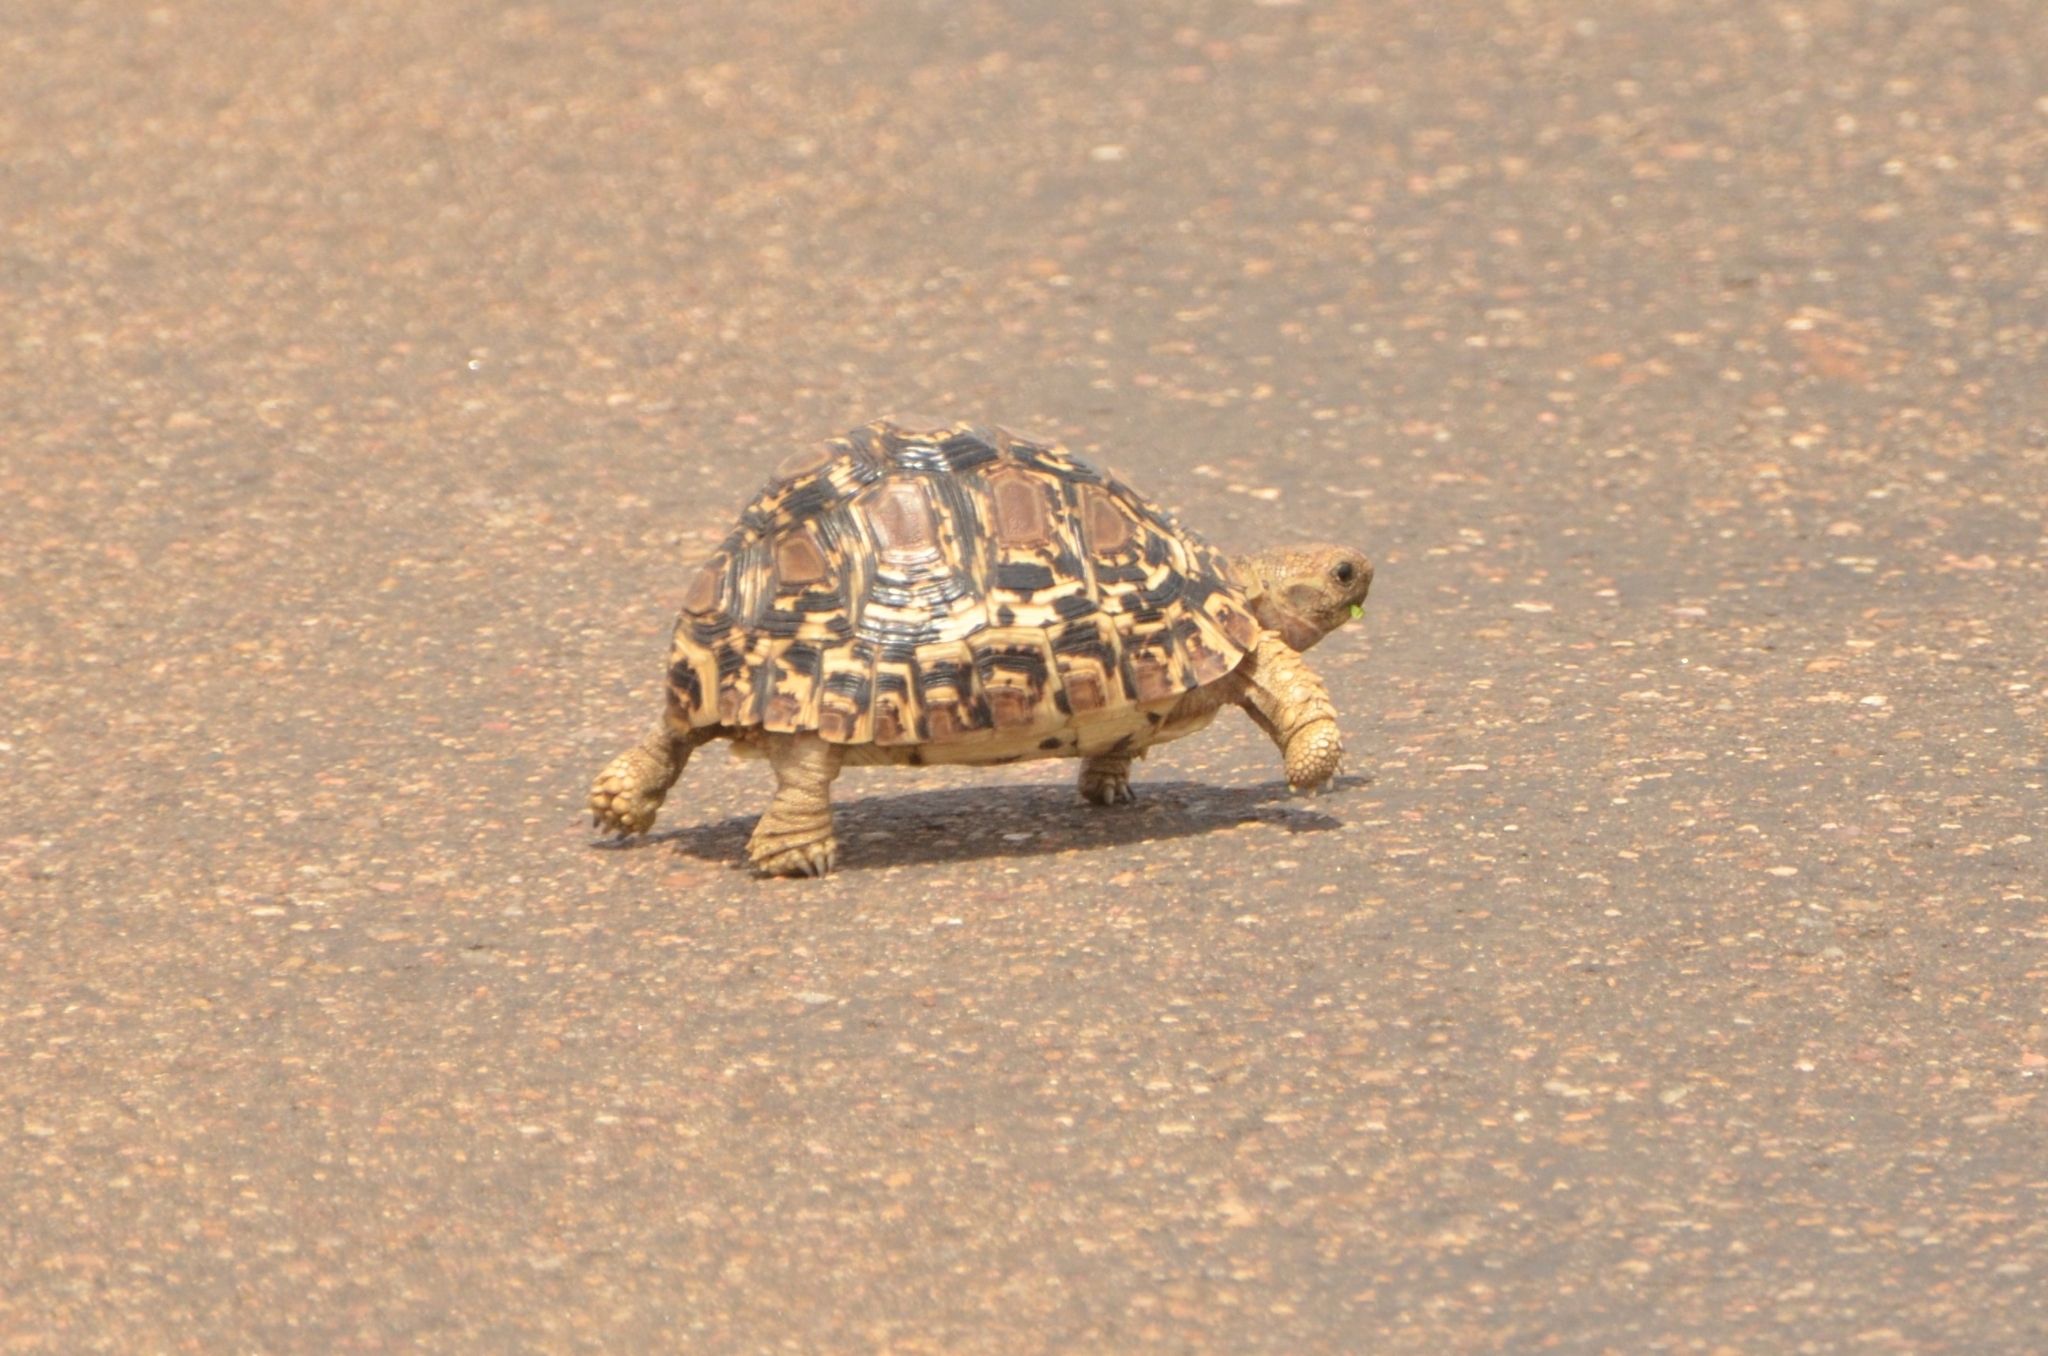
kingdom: Animalia
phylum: Chordata
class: Testudines
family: Testudinidae
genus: Stigmochelys
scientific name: Stigmochelys pardalis
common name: Leopard tortoise
